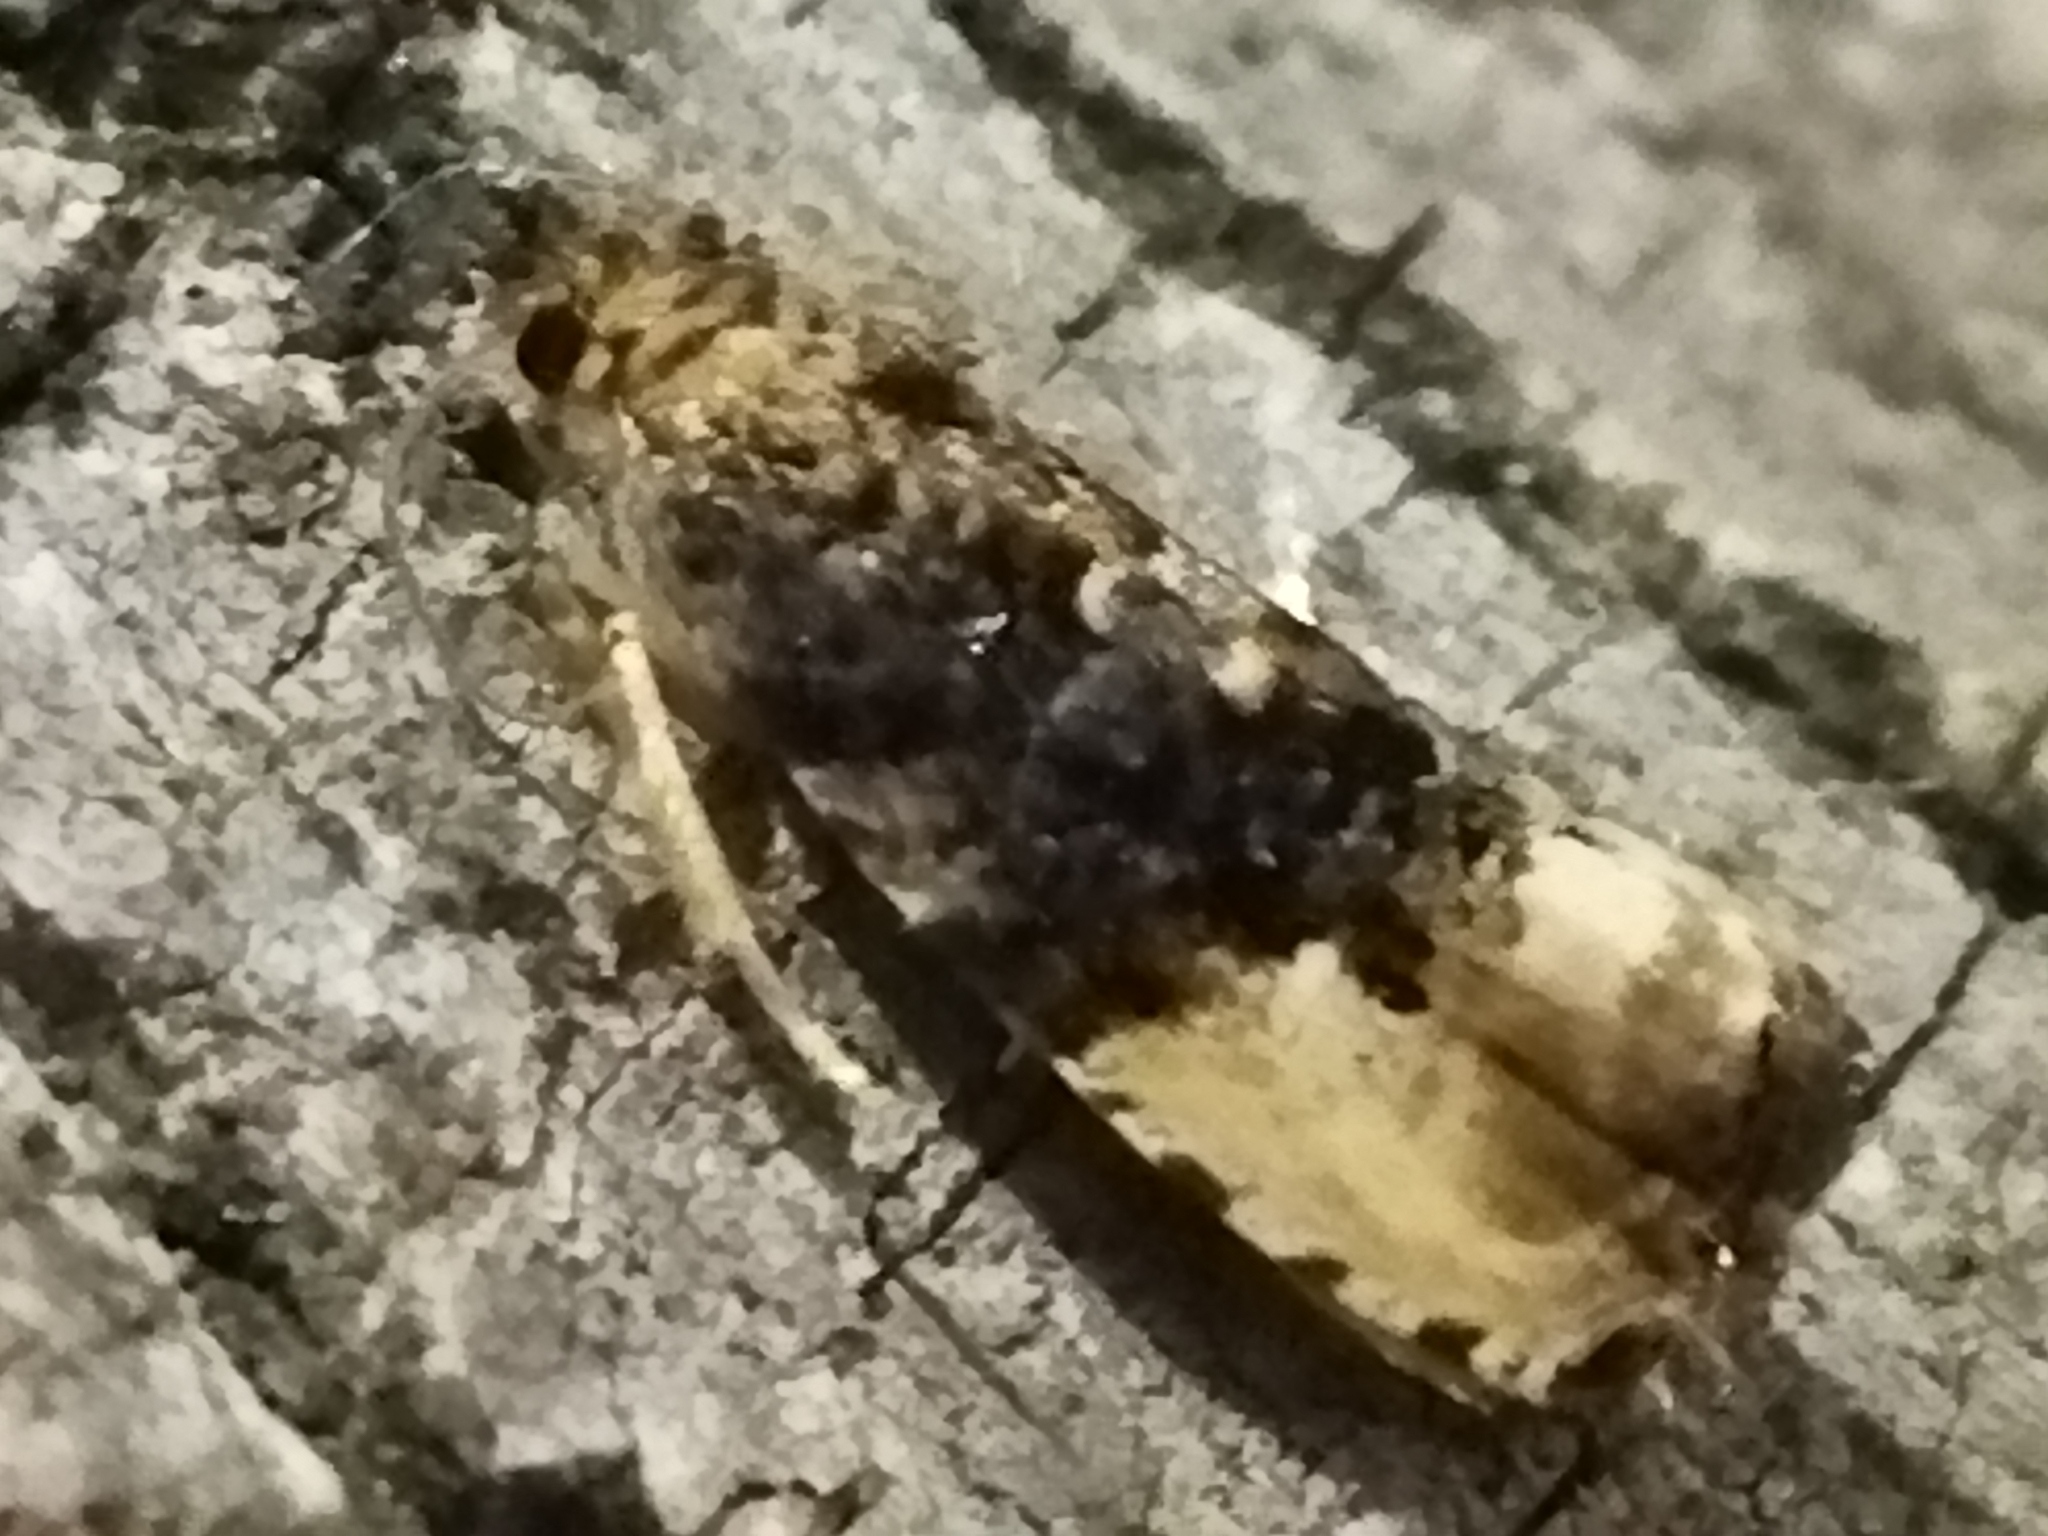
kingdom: Animalia
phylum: Arthropoda
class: Insecta
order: Lepidoptera
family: Tortricidae
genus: Hedya
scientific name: Hedya pruniana
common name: Plum tortrix
